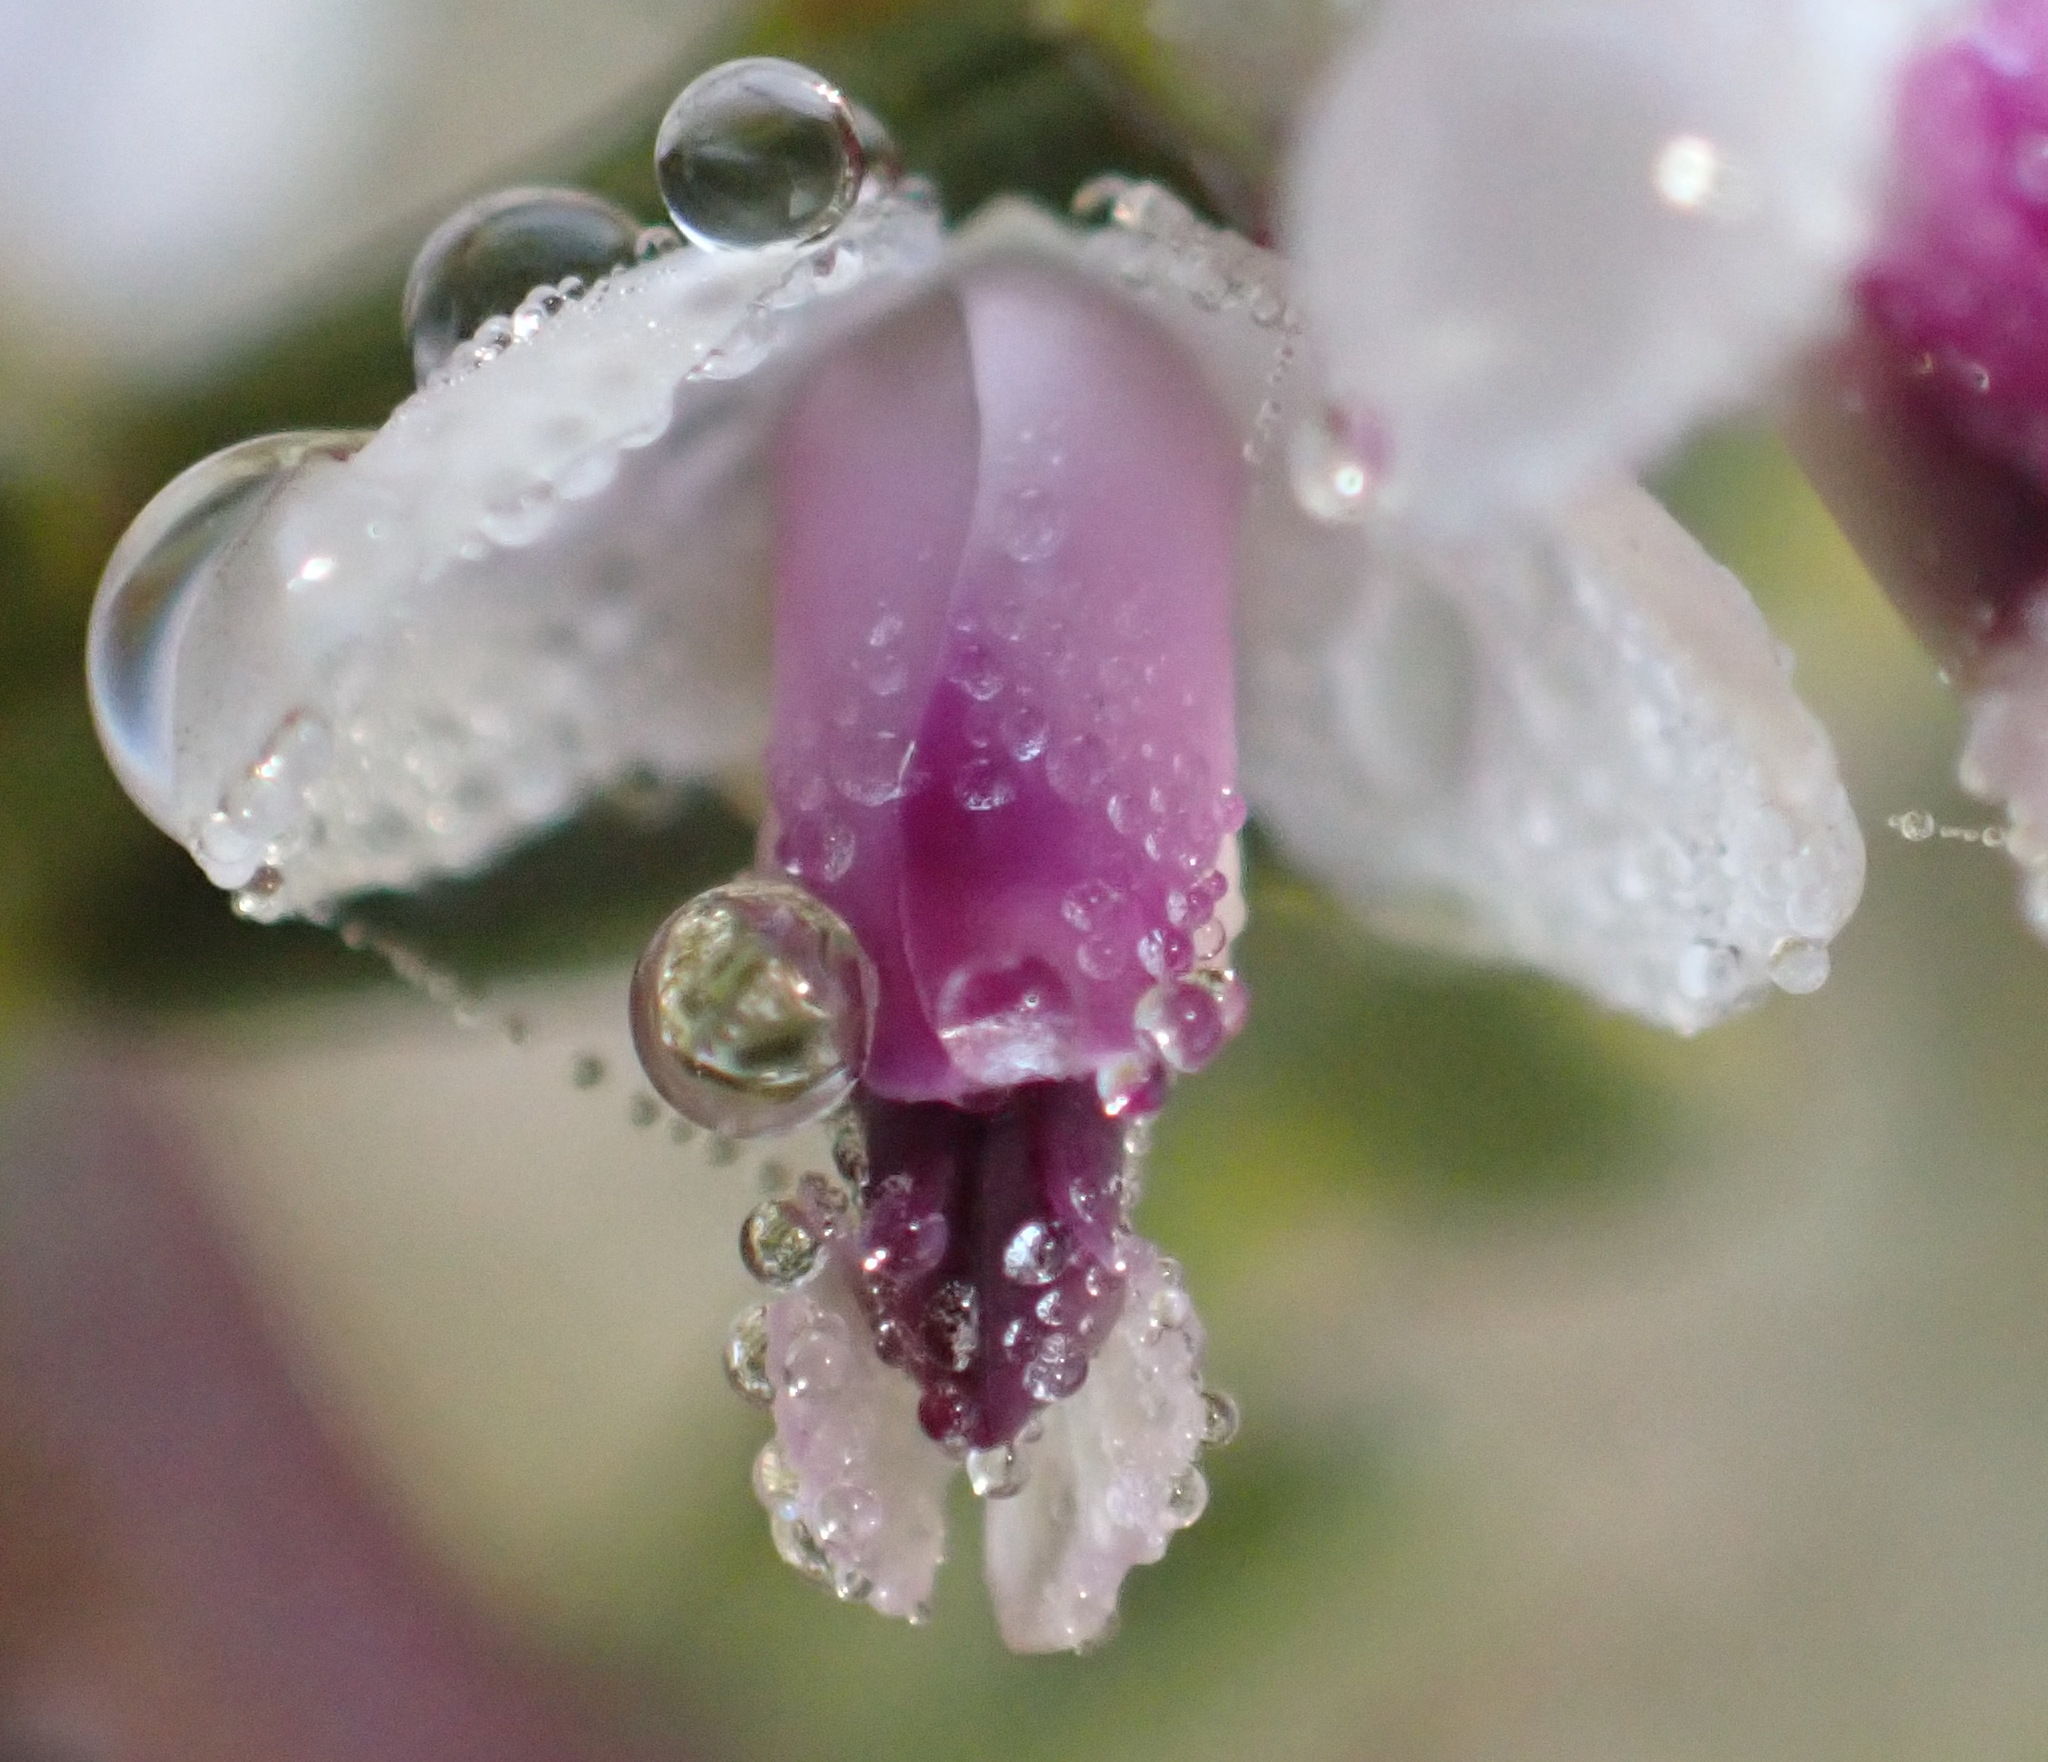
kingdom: Plantae
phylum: Tracheophyta
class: Magnoliopsida
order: Fabales
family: Polygalaceae
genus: Muraltia
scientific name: Muraltia spinosa
